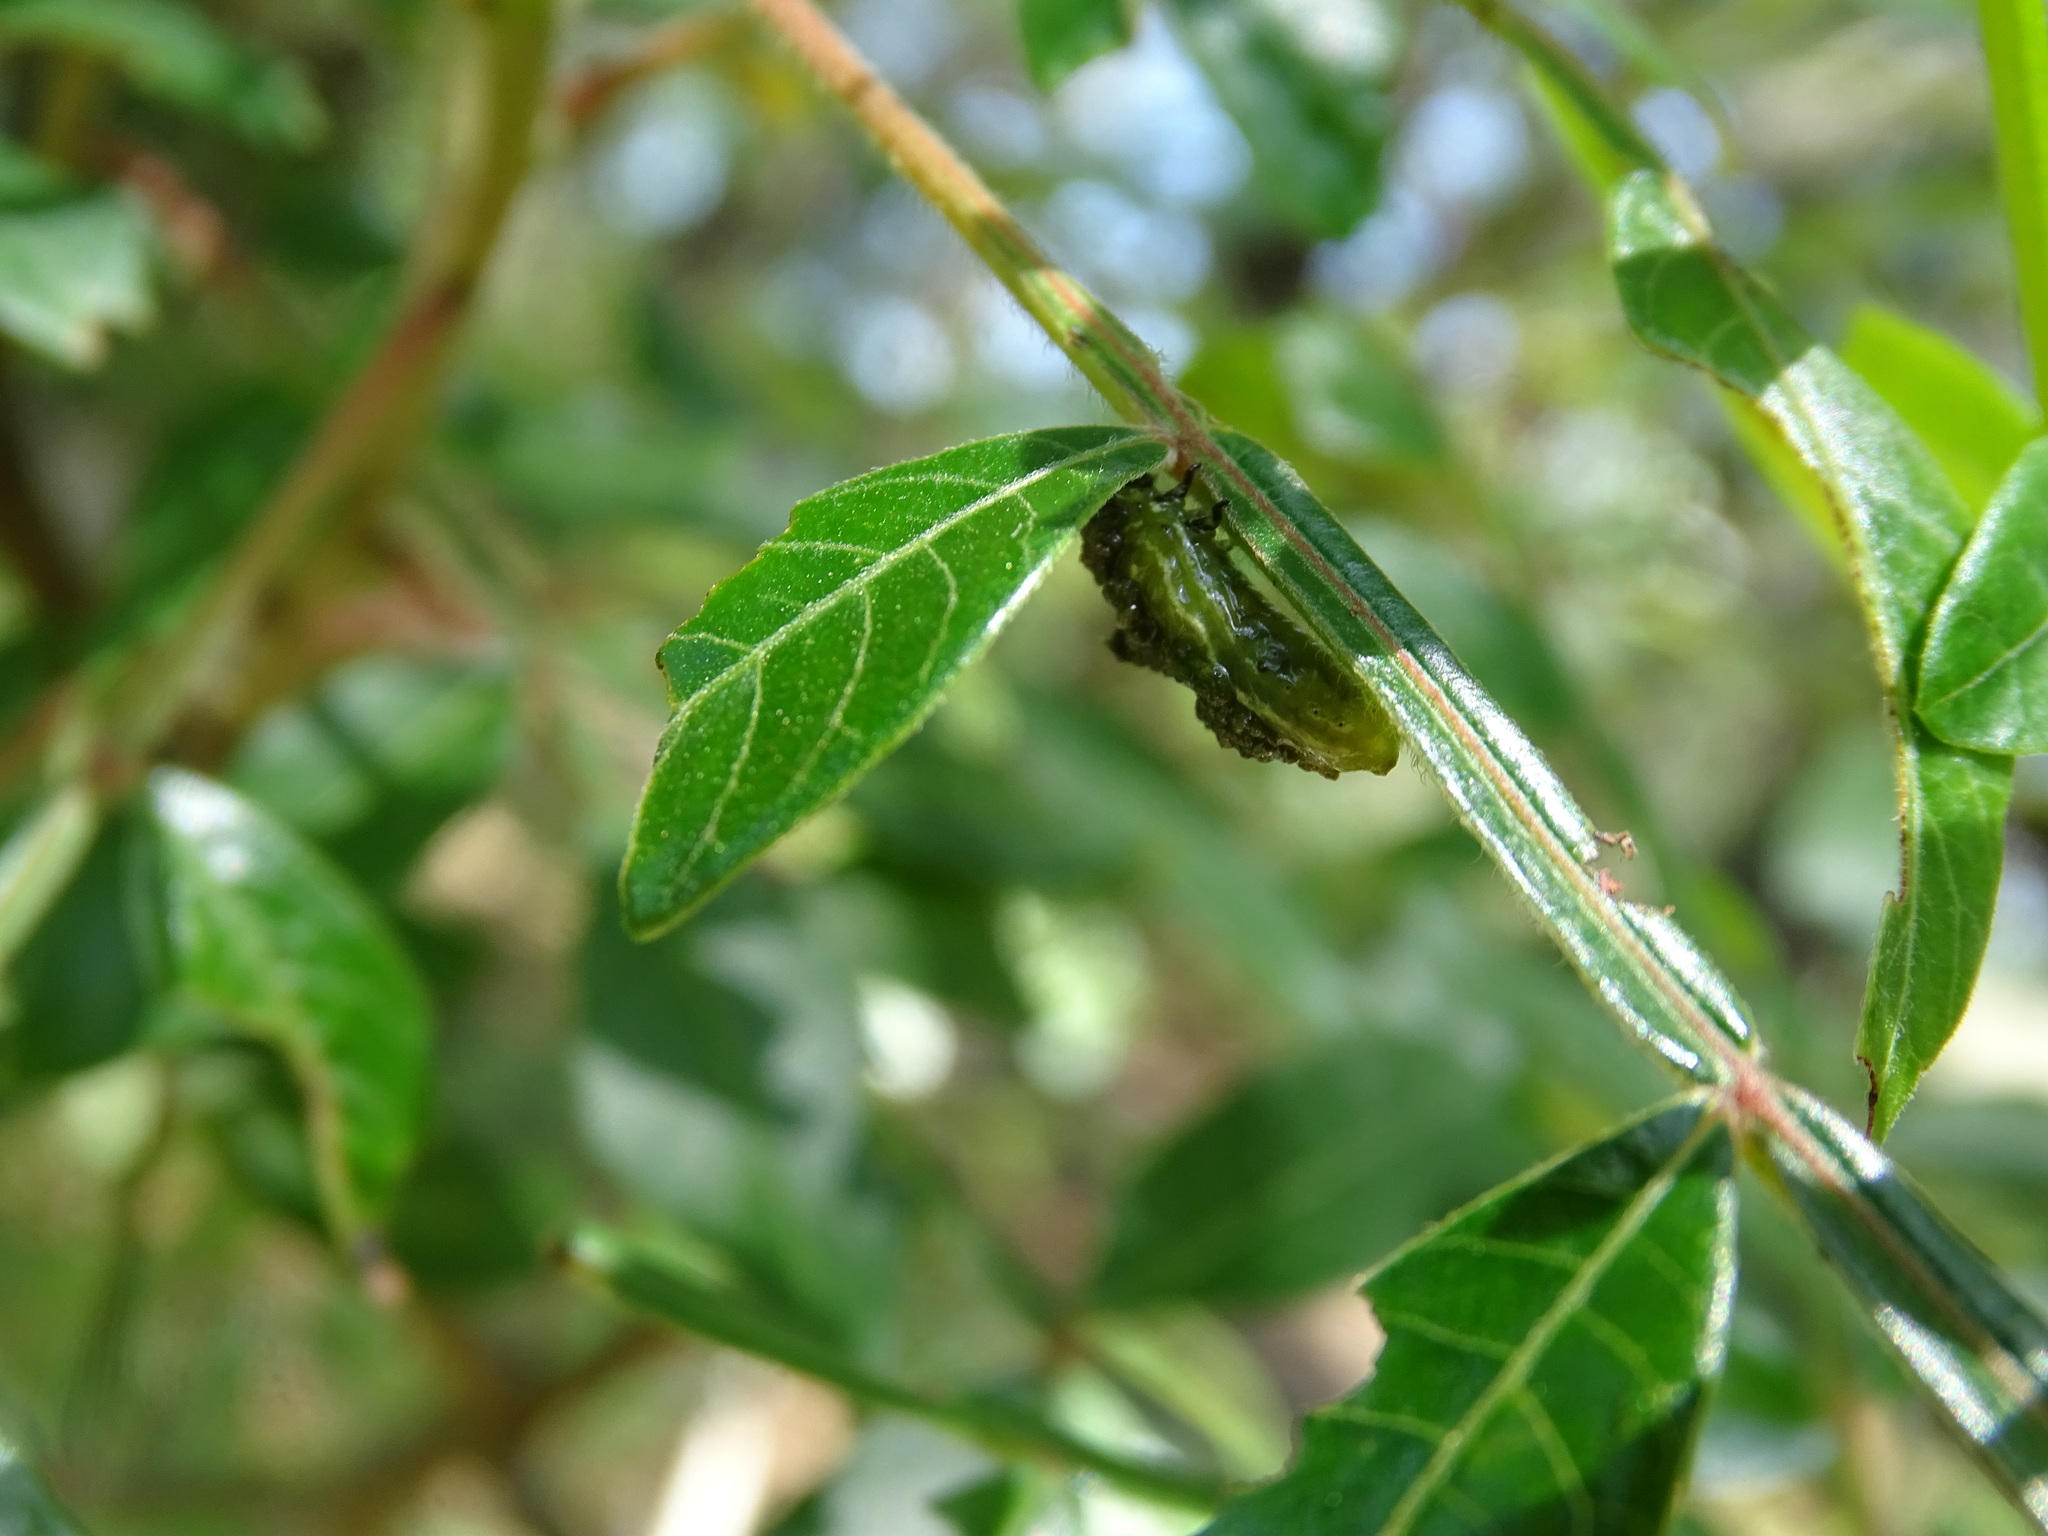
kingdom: Animalia
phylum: Arthropoda
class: Insecta
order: Coleoptera
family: Chrysomelidae
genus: Blepharida
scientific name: Blepharida rhois
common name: Sumac flea beetle
